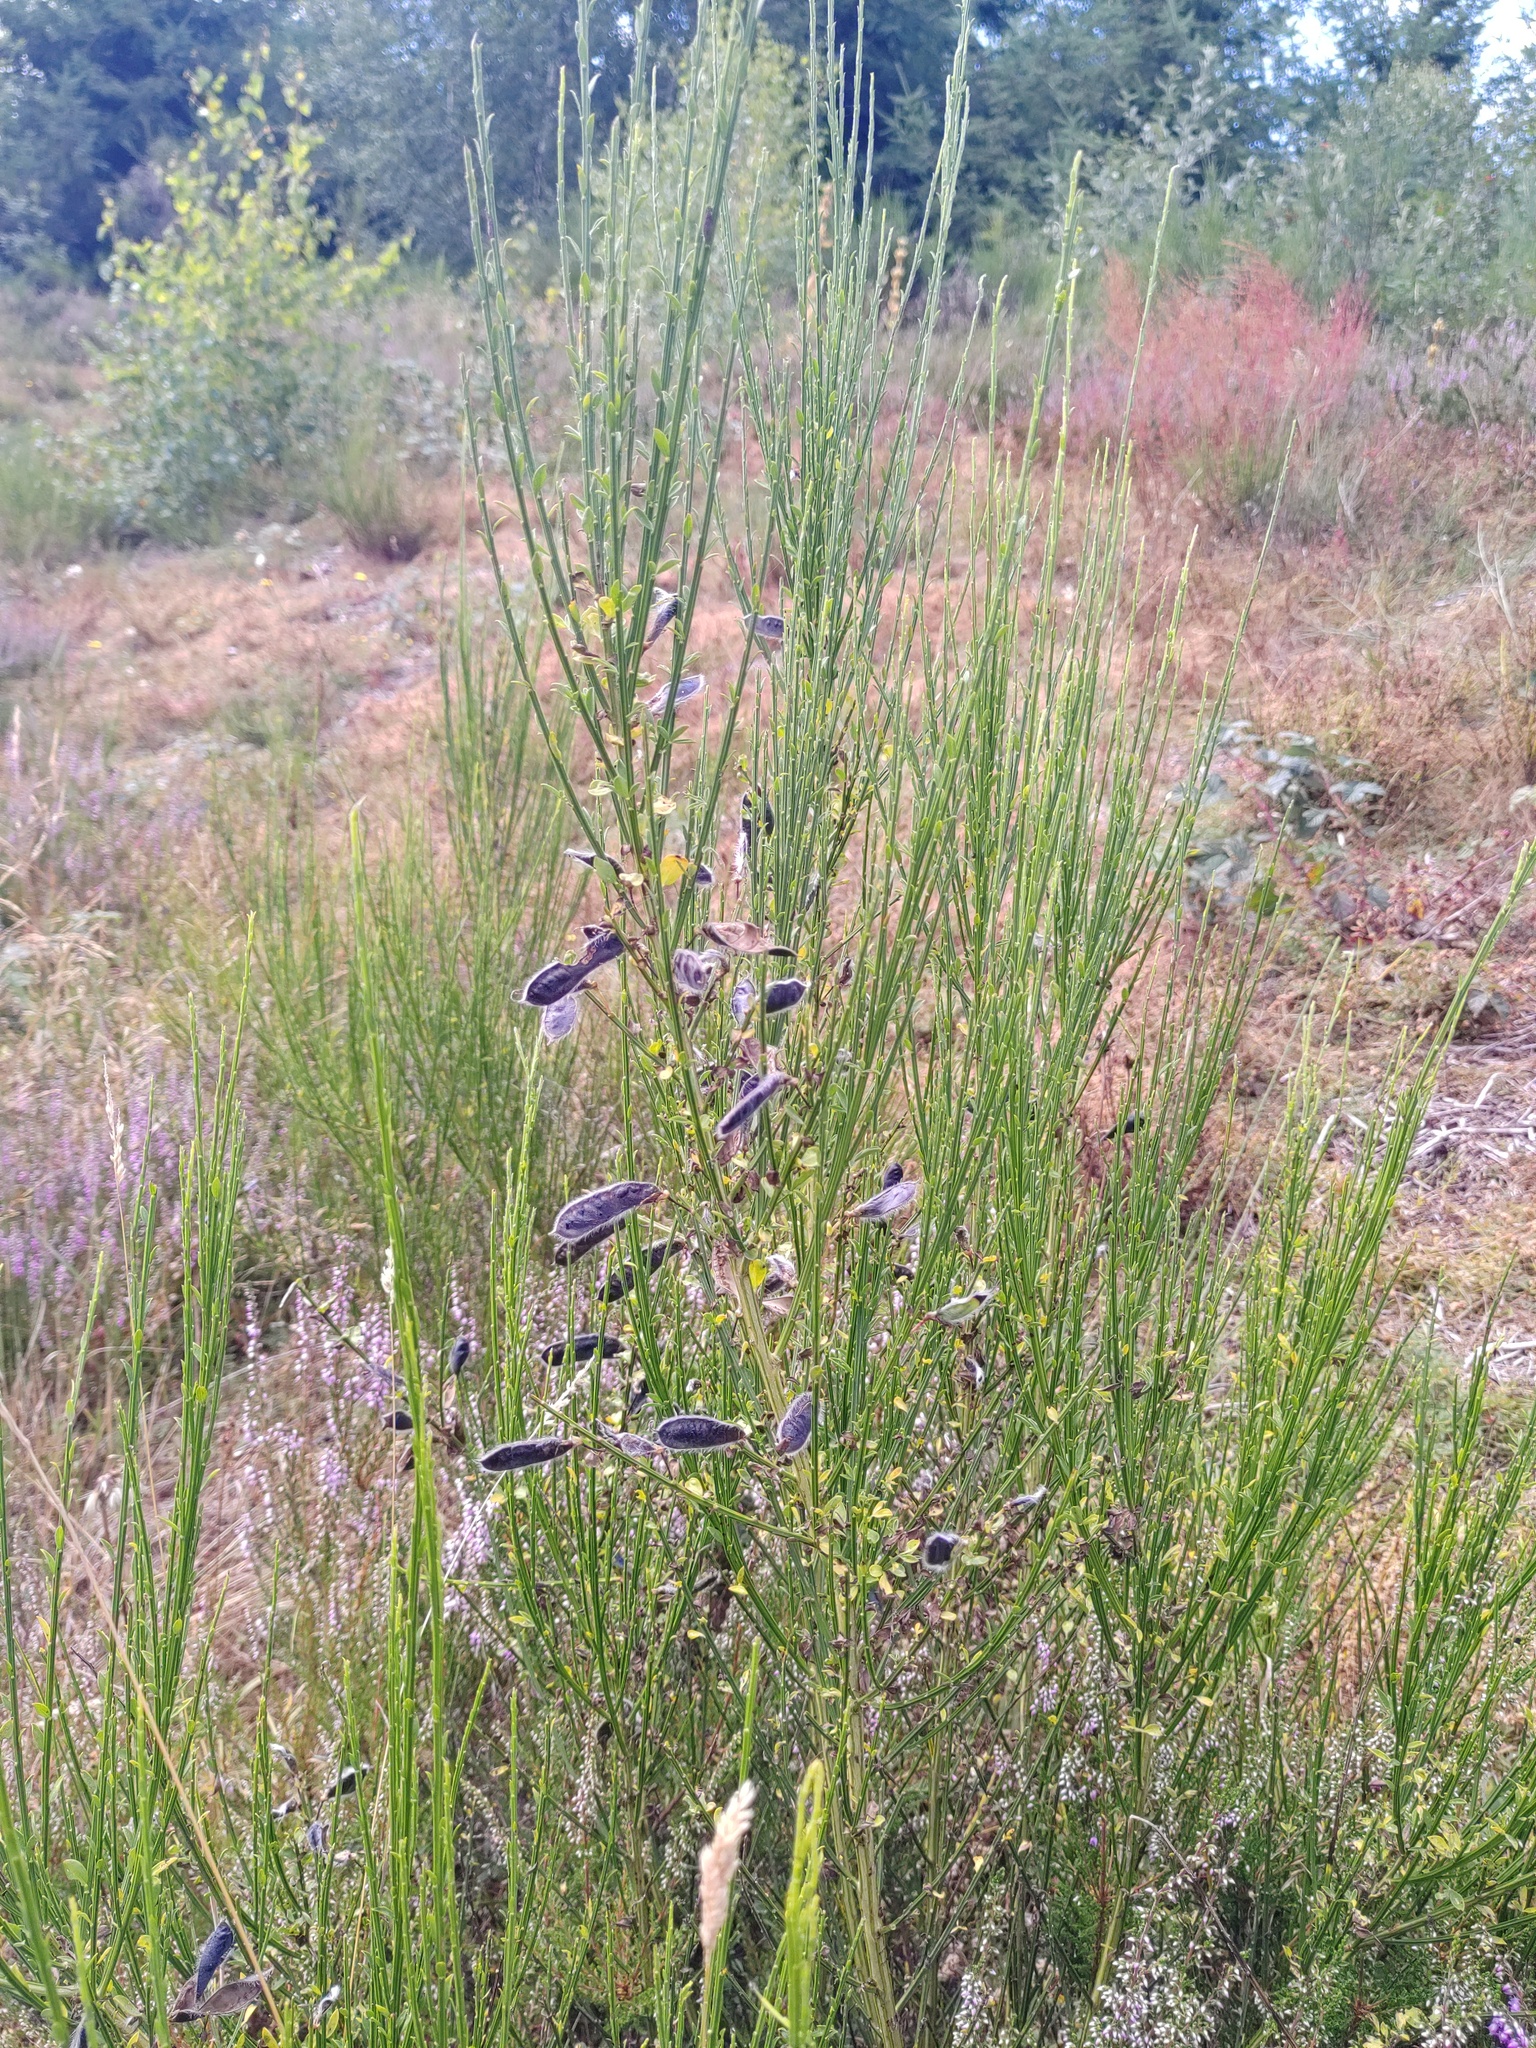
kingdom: Plantae
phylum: Tracheophyta
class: Magnoliopsida
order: Fabales
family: Fabaceae
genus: Cytisus
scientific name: Cytisus scoparius
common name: Scotch broom
